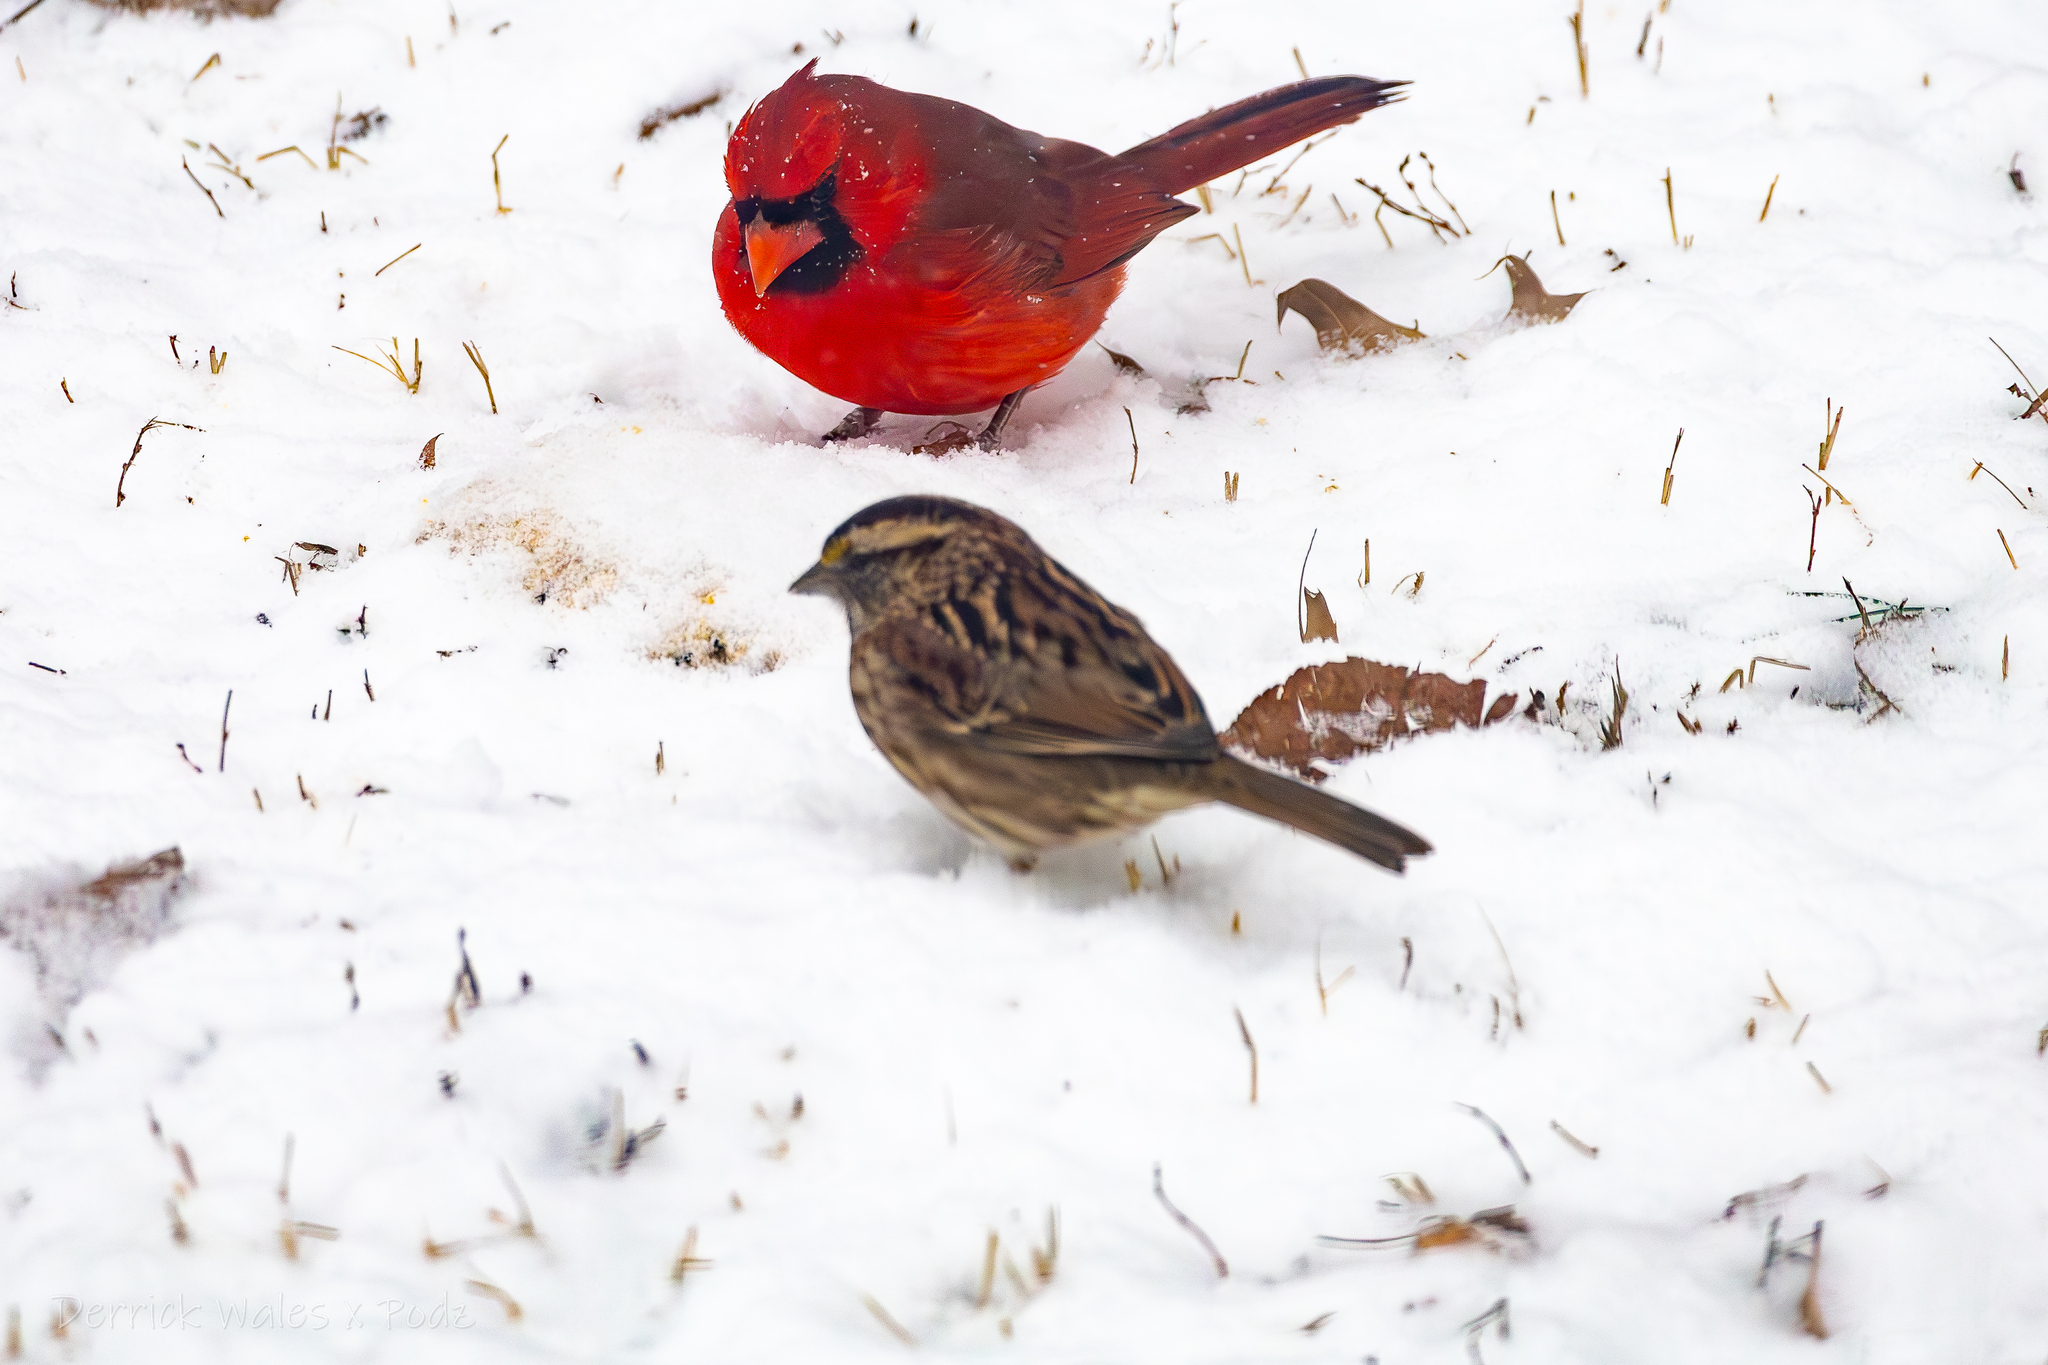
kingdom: Animalia
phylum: Chordata
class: Aves
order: Passeriformes
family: Passerellidae
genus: Zonotrichia
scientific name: Zonotrichia albicollis
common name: White-throated sparrow
